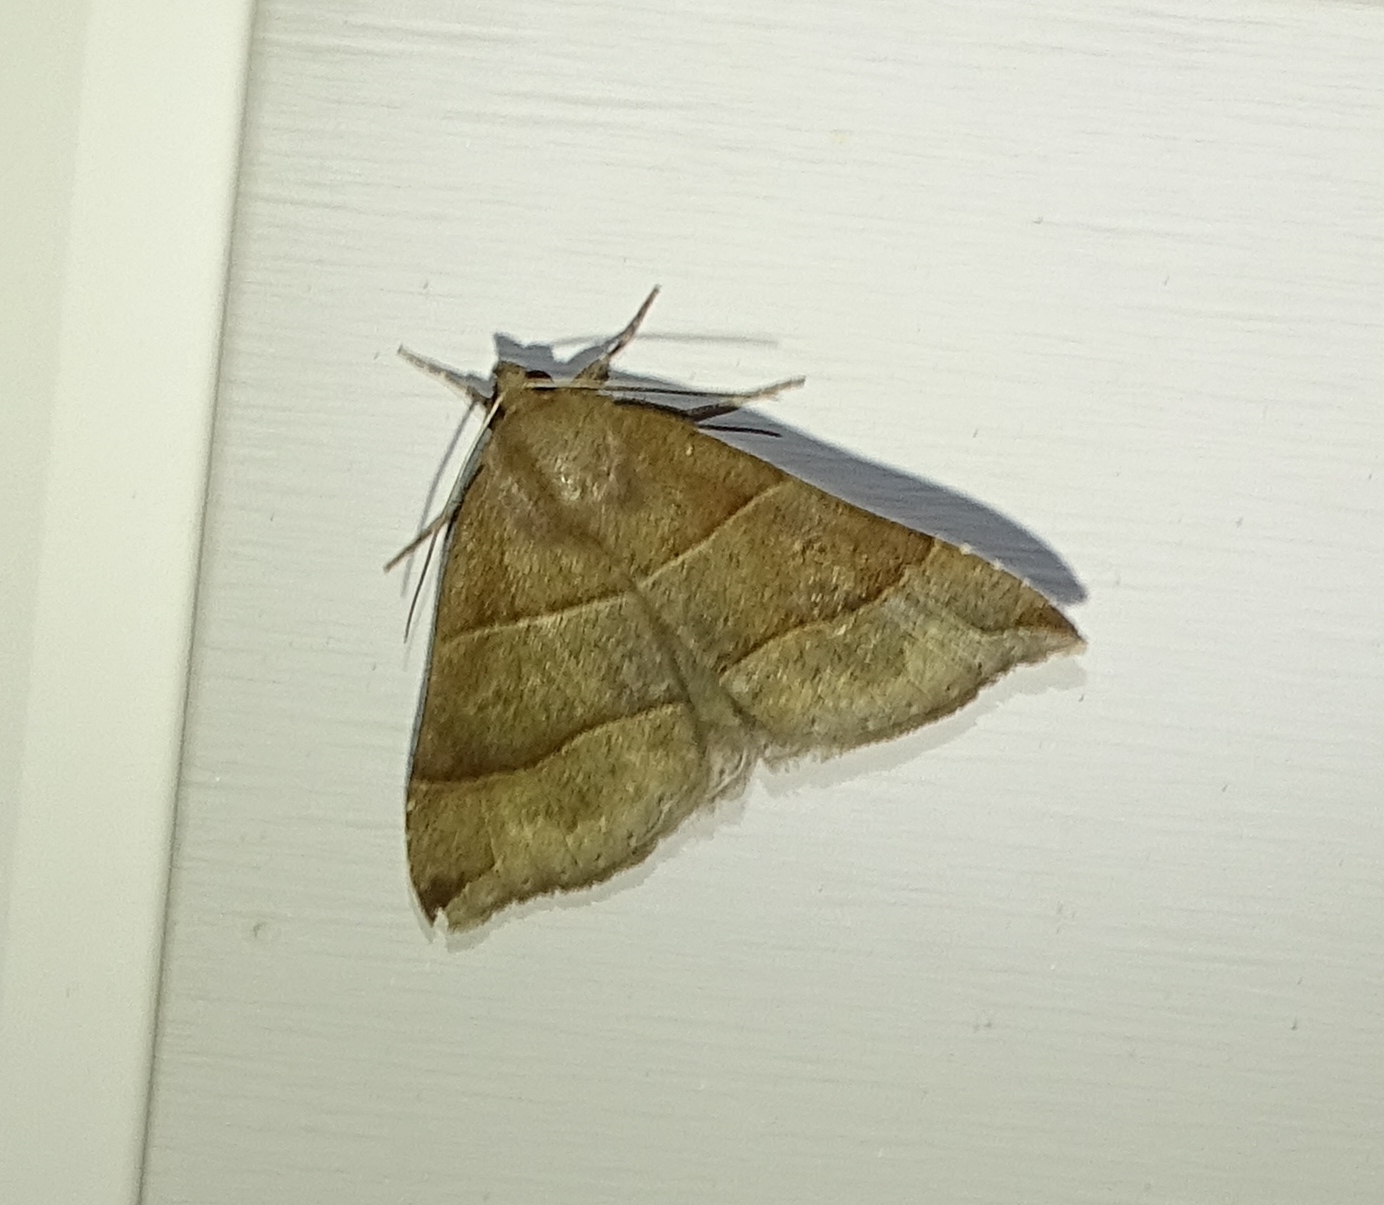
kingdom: Animalia
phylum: Arthropoda
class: Insecta
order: Lepidoptera
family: Erebidae
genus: Parallelia
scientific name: Parallelia bistriaris
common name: Maple looper moth
